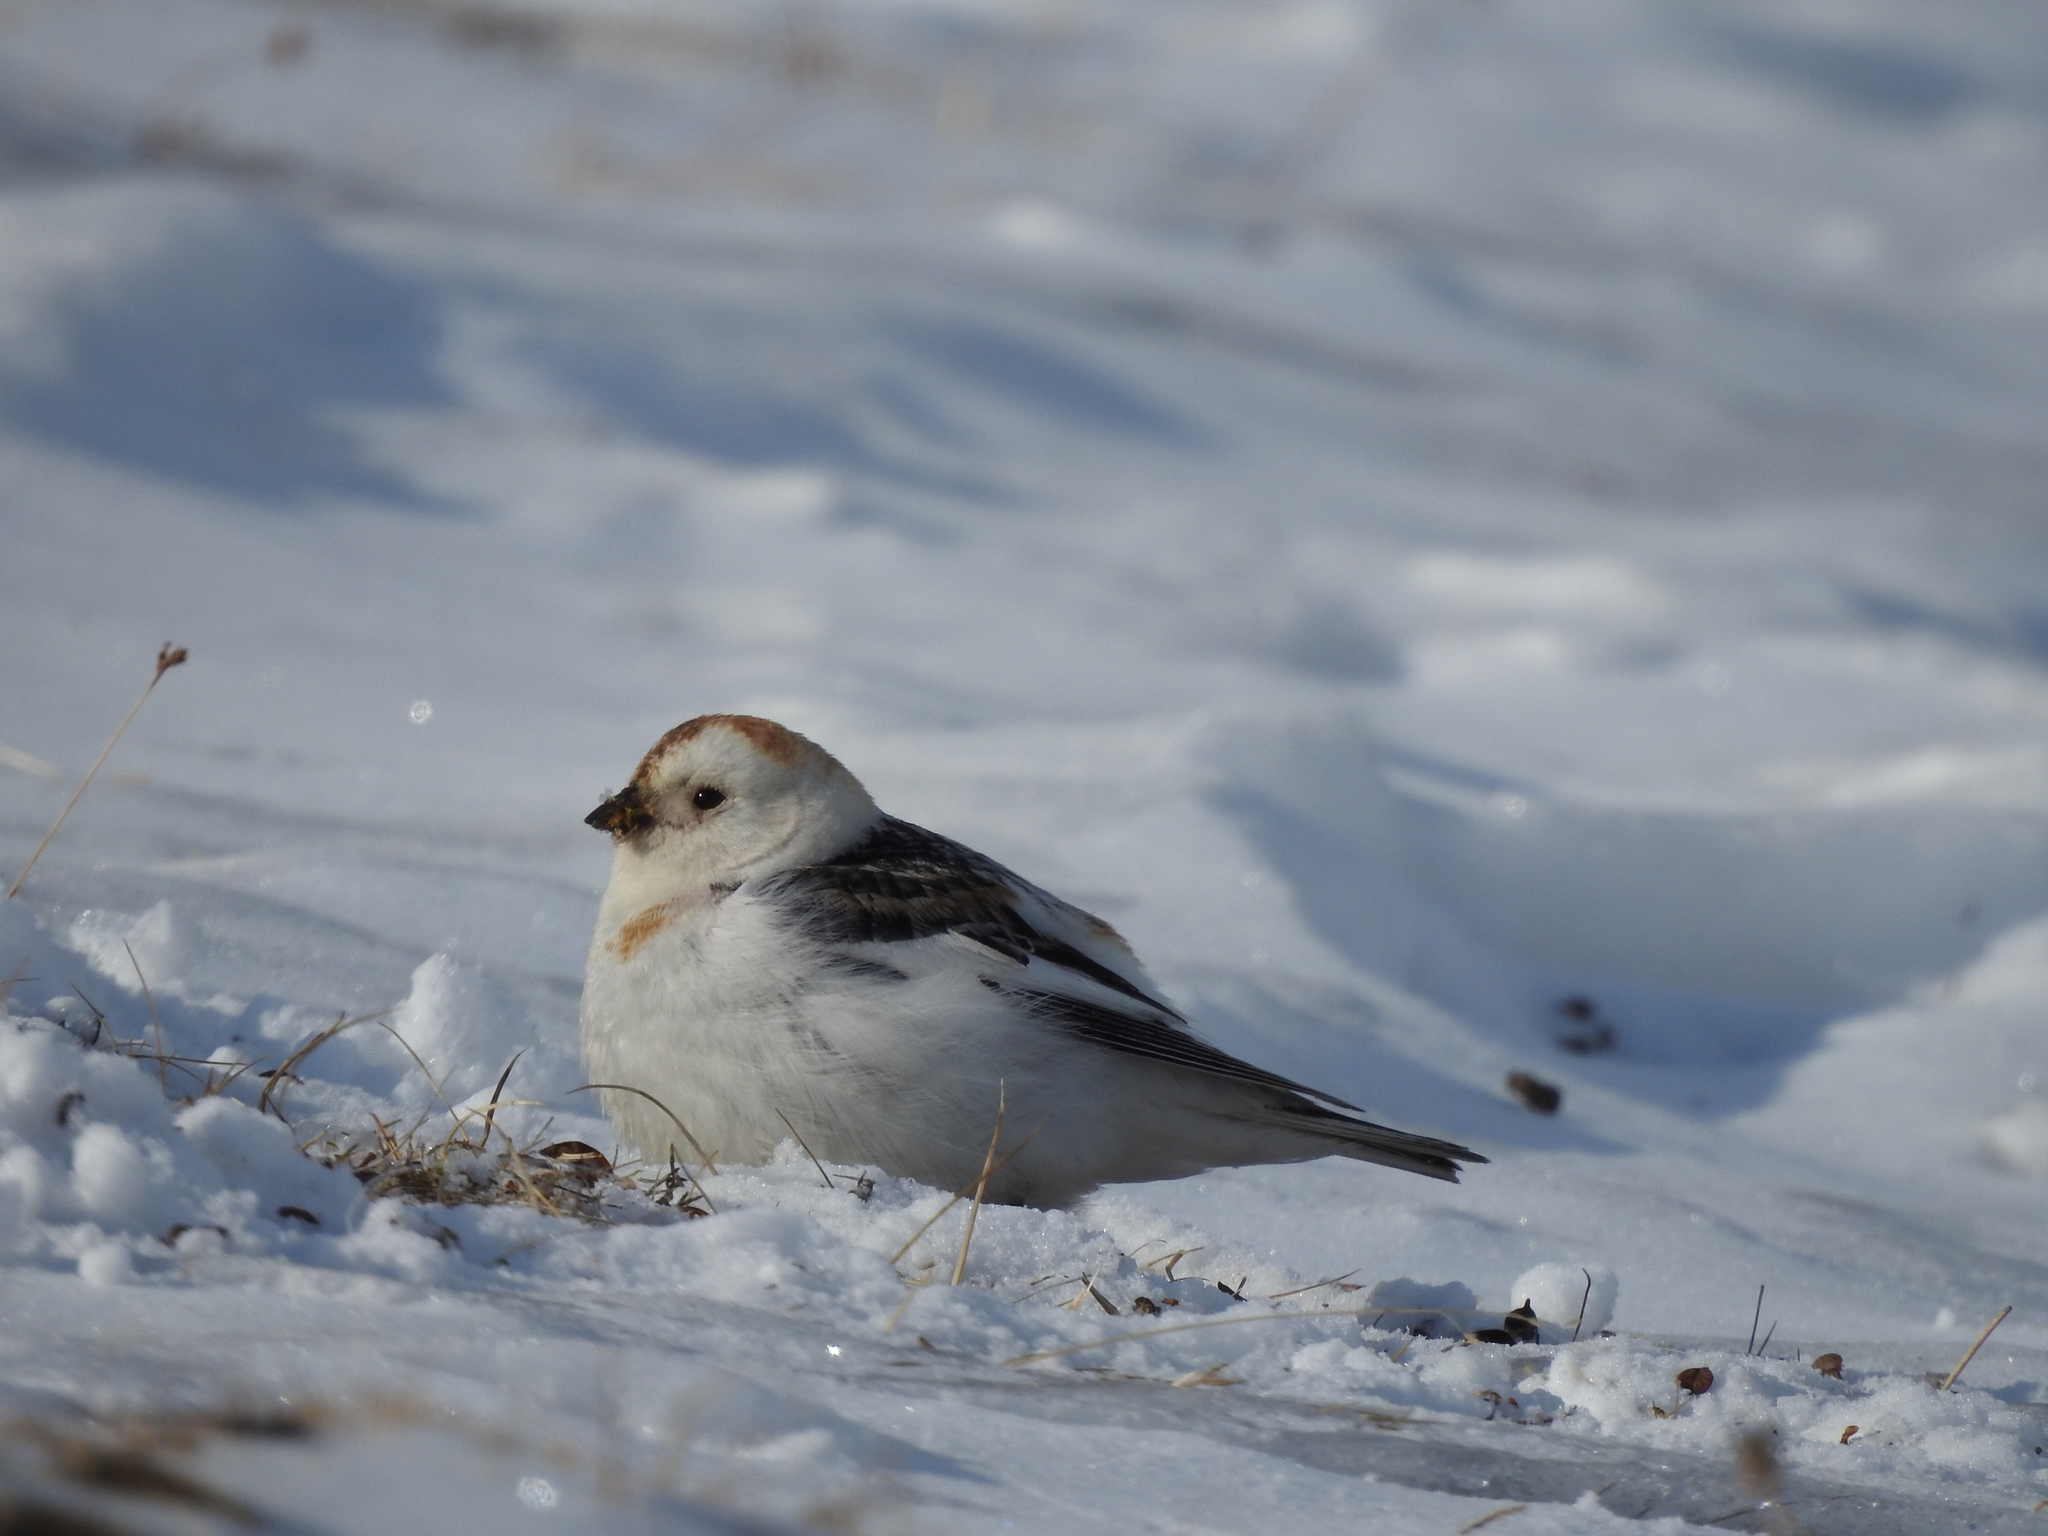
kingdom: Animalia
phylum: Chordata
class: Aves
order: Passeriformes
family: Calcariidae
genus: Plectrophenax
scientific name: Plectrophenax nivalis
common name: Snow bunting
